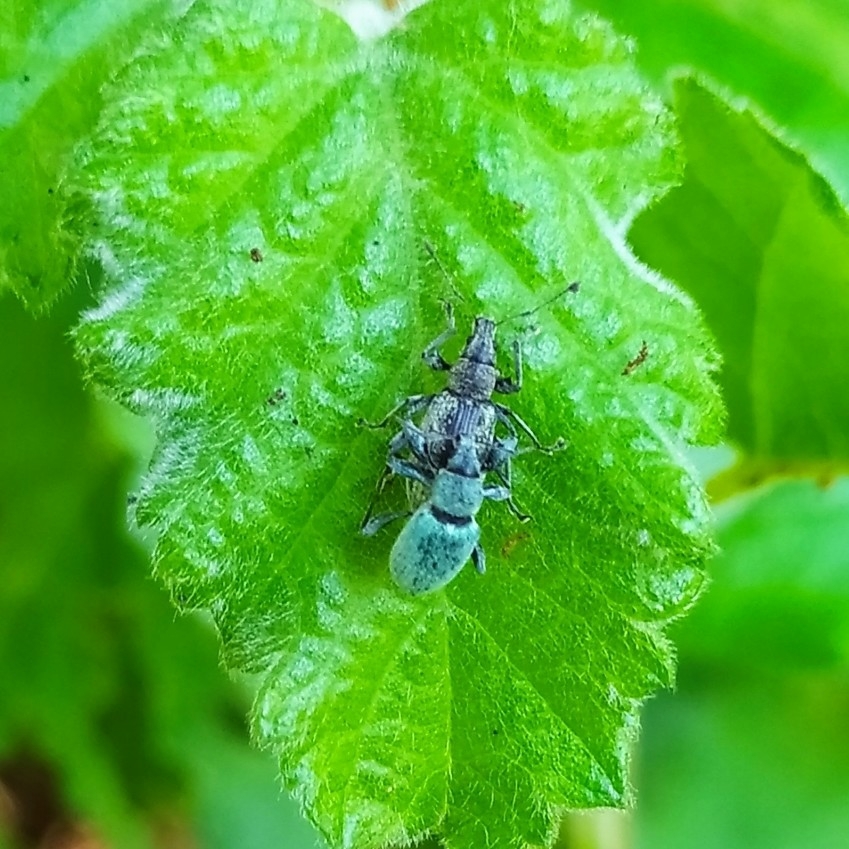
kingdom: Animalia
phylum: Arthropoda
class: Insecta
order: Coleoptera
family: Curculionidae
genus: Phyllobius
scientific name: Phyllobius pomaceus
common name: Green nettle weevil
